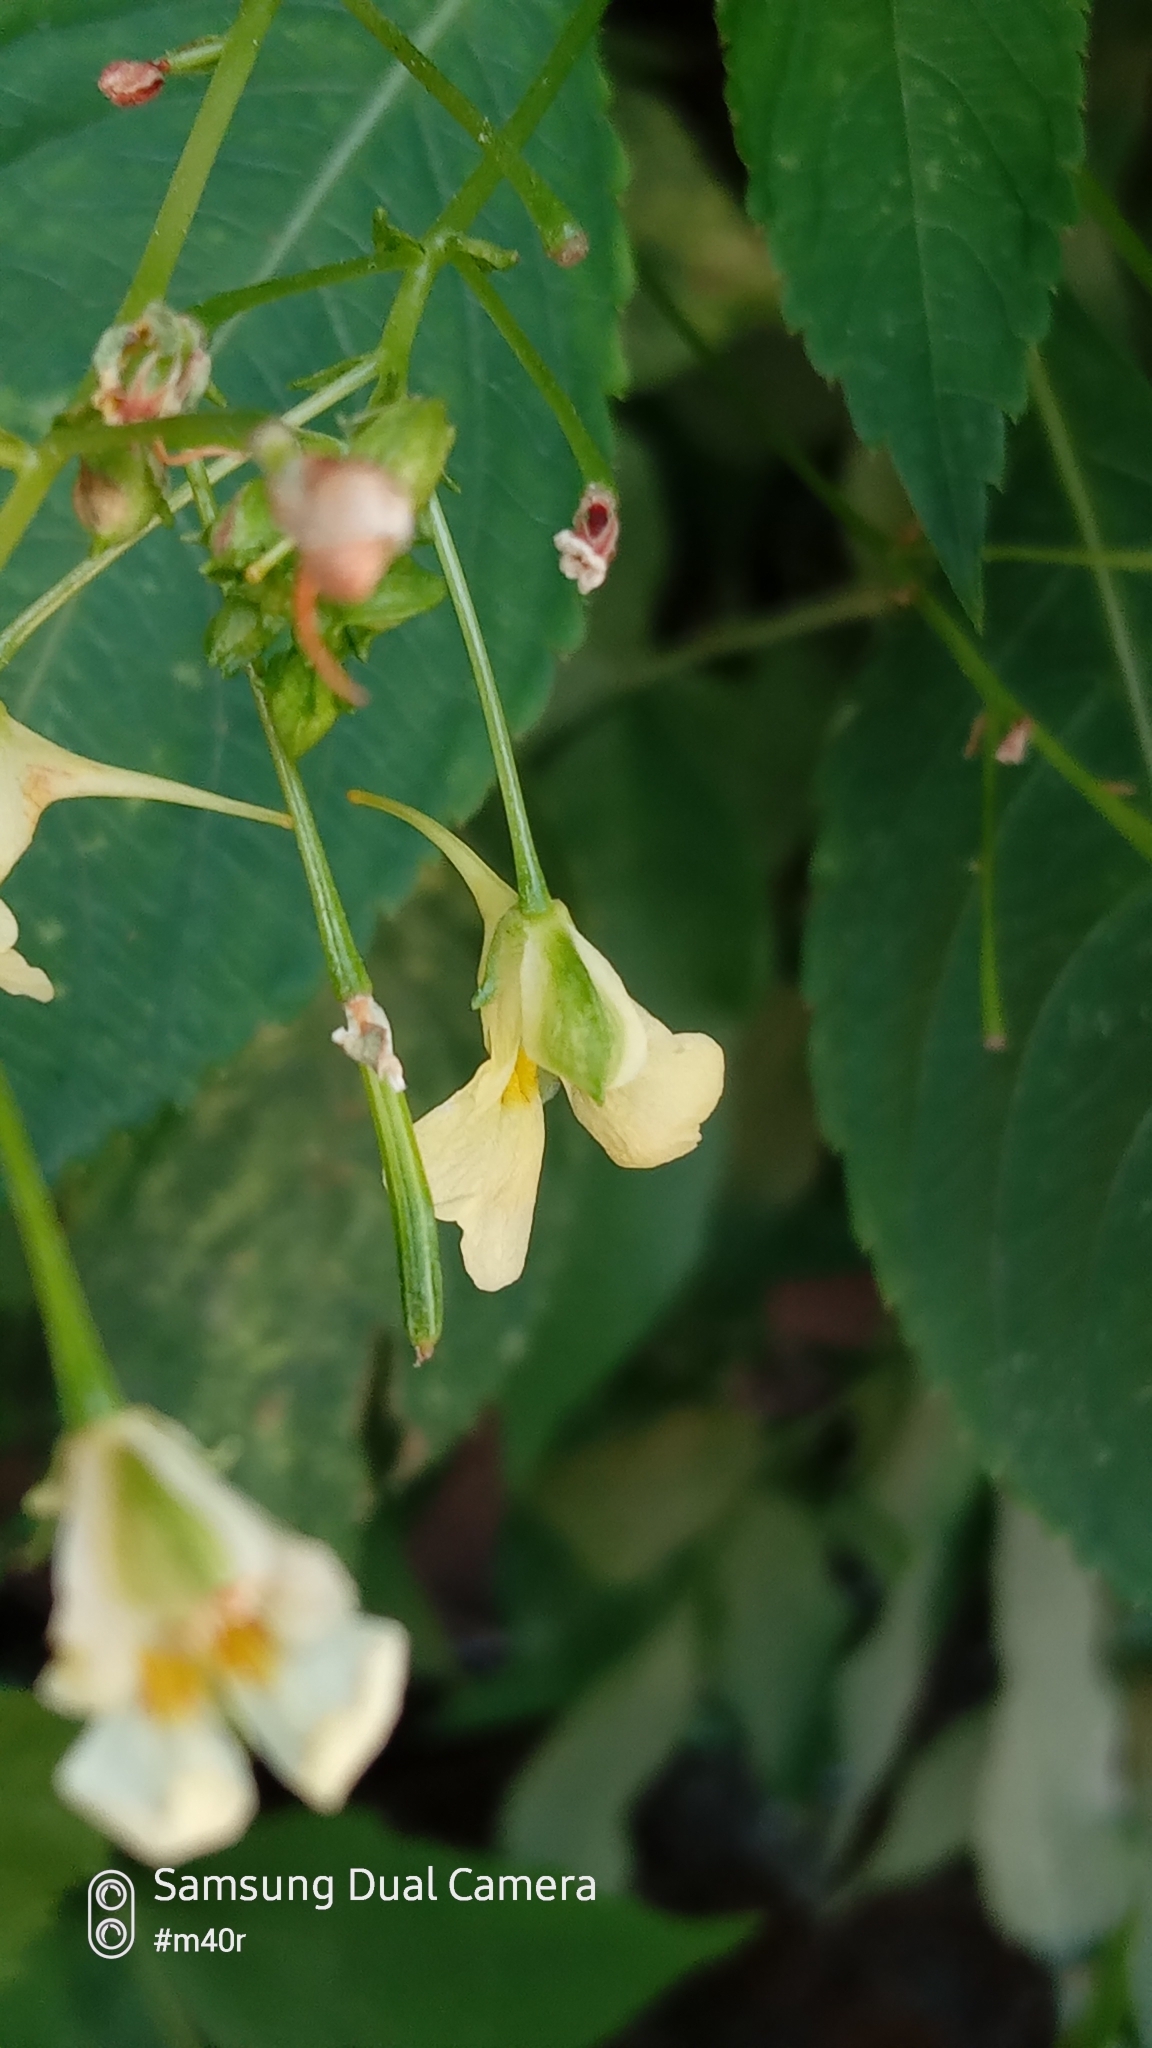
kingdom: Plantae
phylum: Tracheophyta
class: Magnoliopsida
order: Ericales
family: Balsaminaceae
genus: Impatiens
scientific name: Impatiens parviflora
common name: Small balsam
